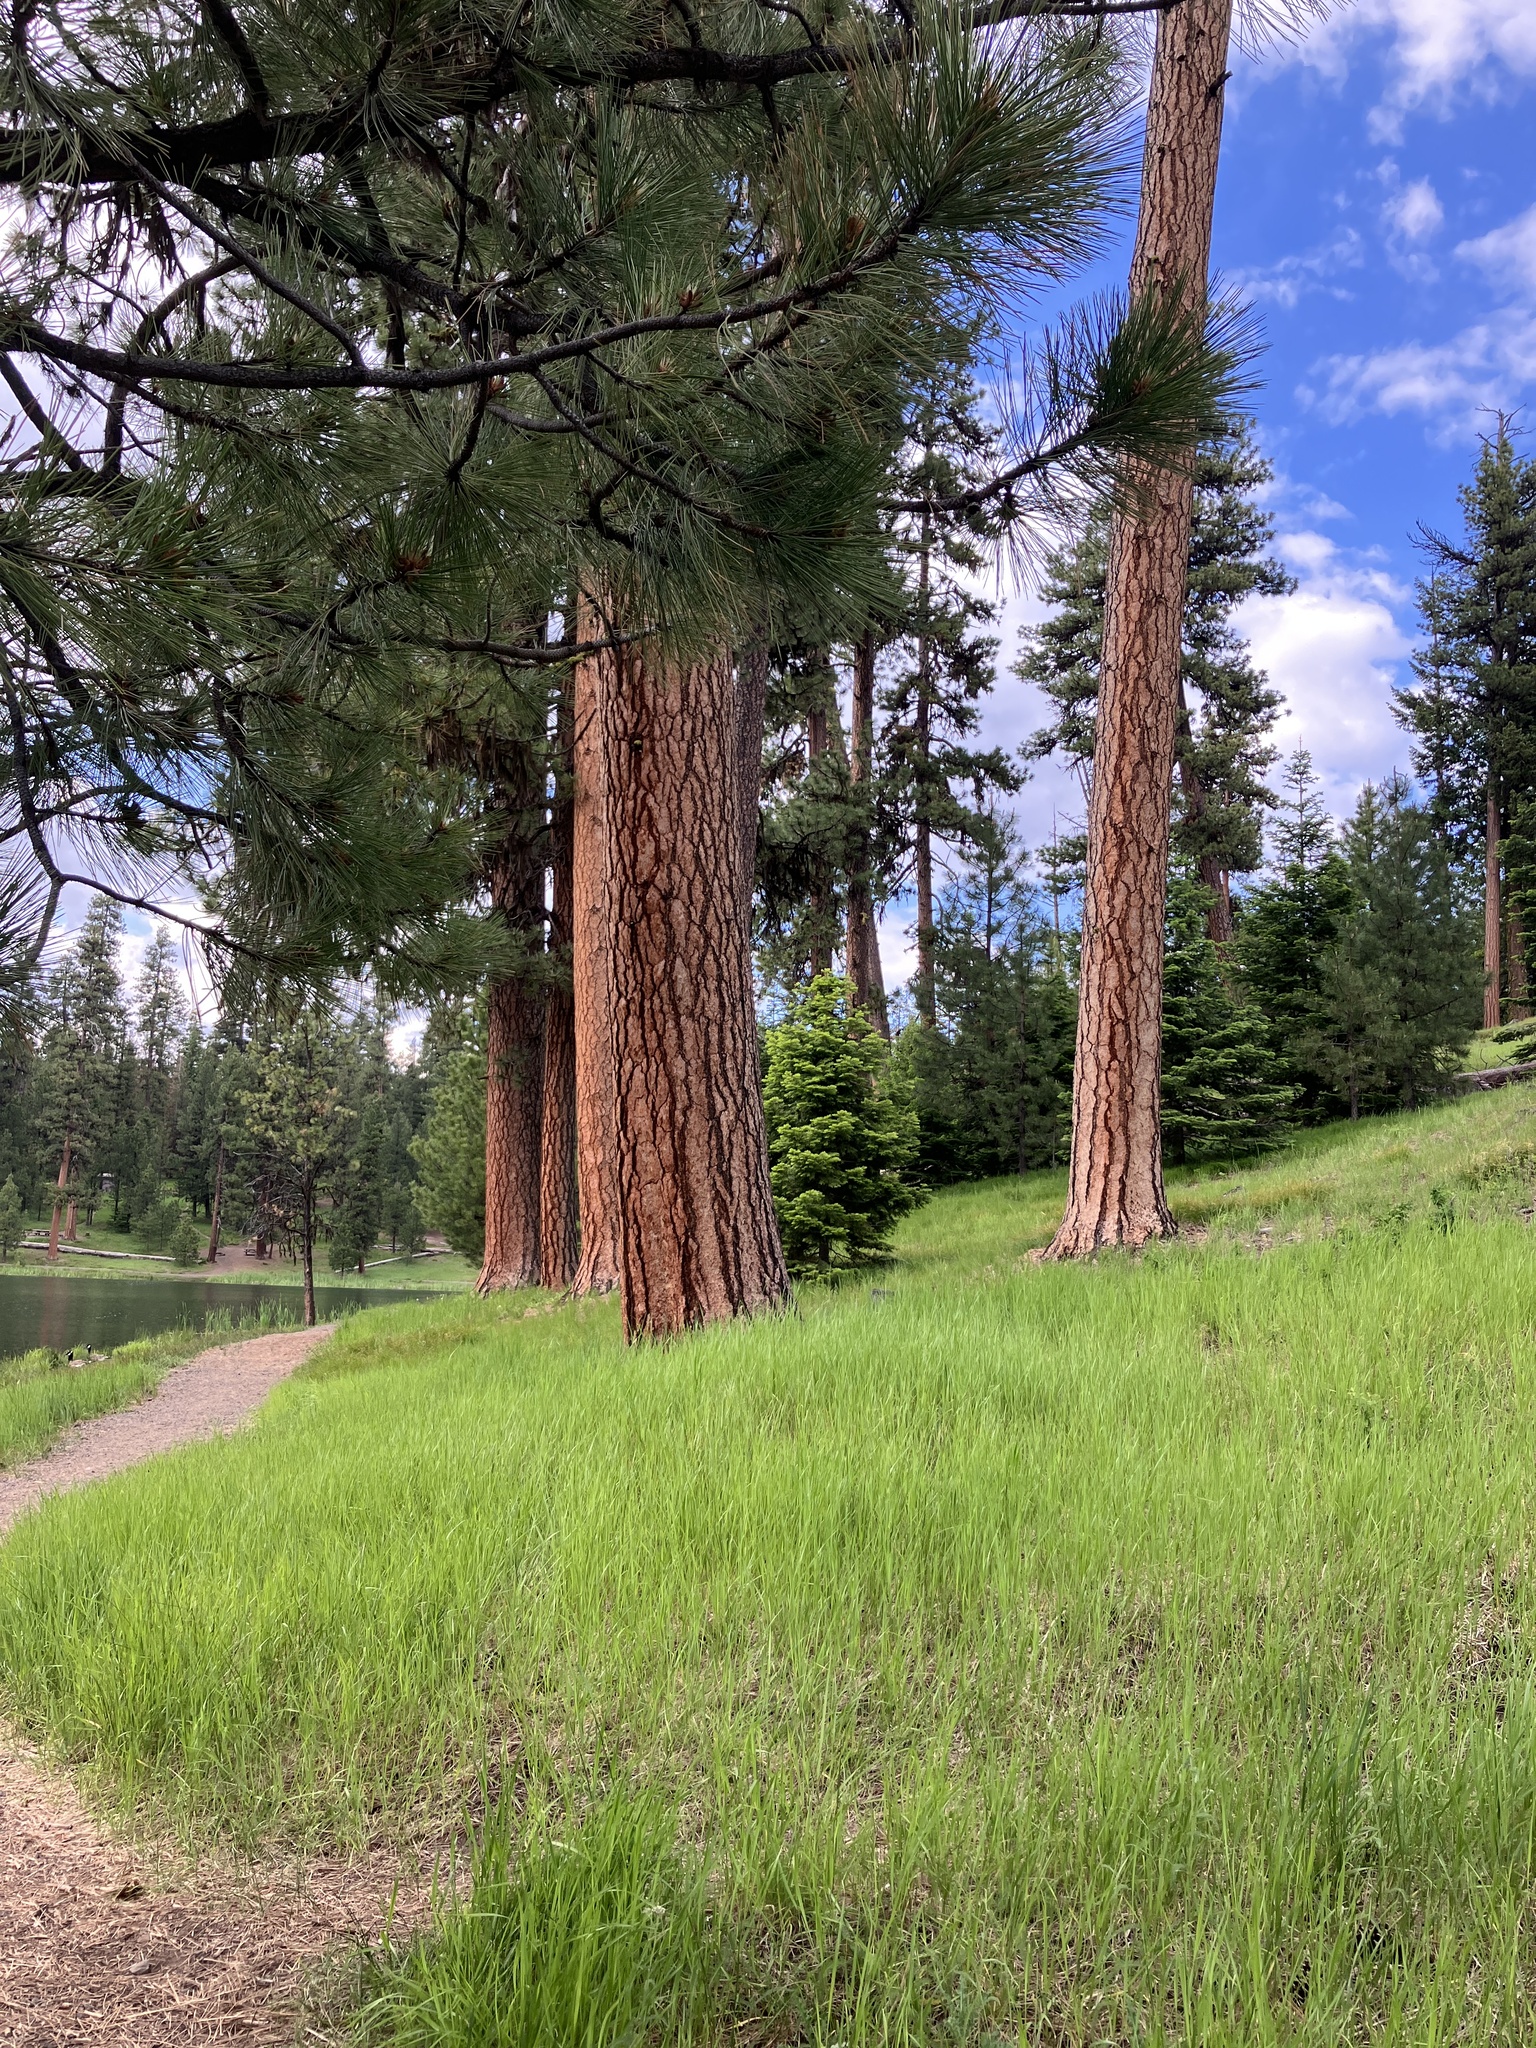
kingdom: Plantae
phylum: Tracheophyta
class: Pinopsida
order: Pinales
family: Pinaceae
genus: Pinus
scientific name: Pinus ponderosa
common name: Western yellow-pine
